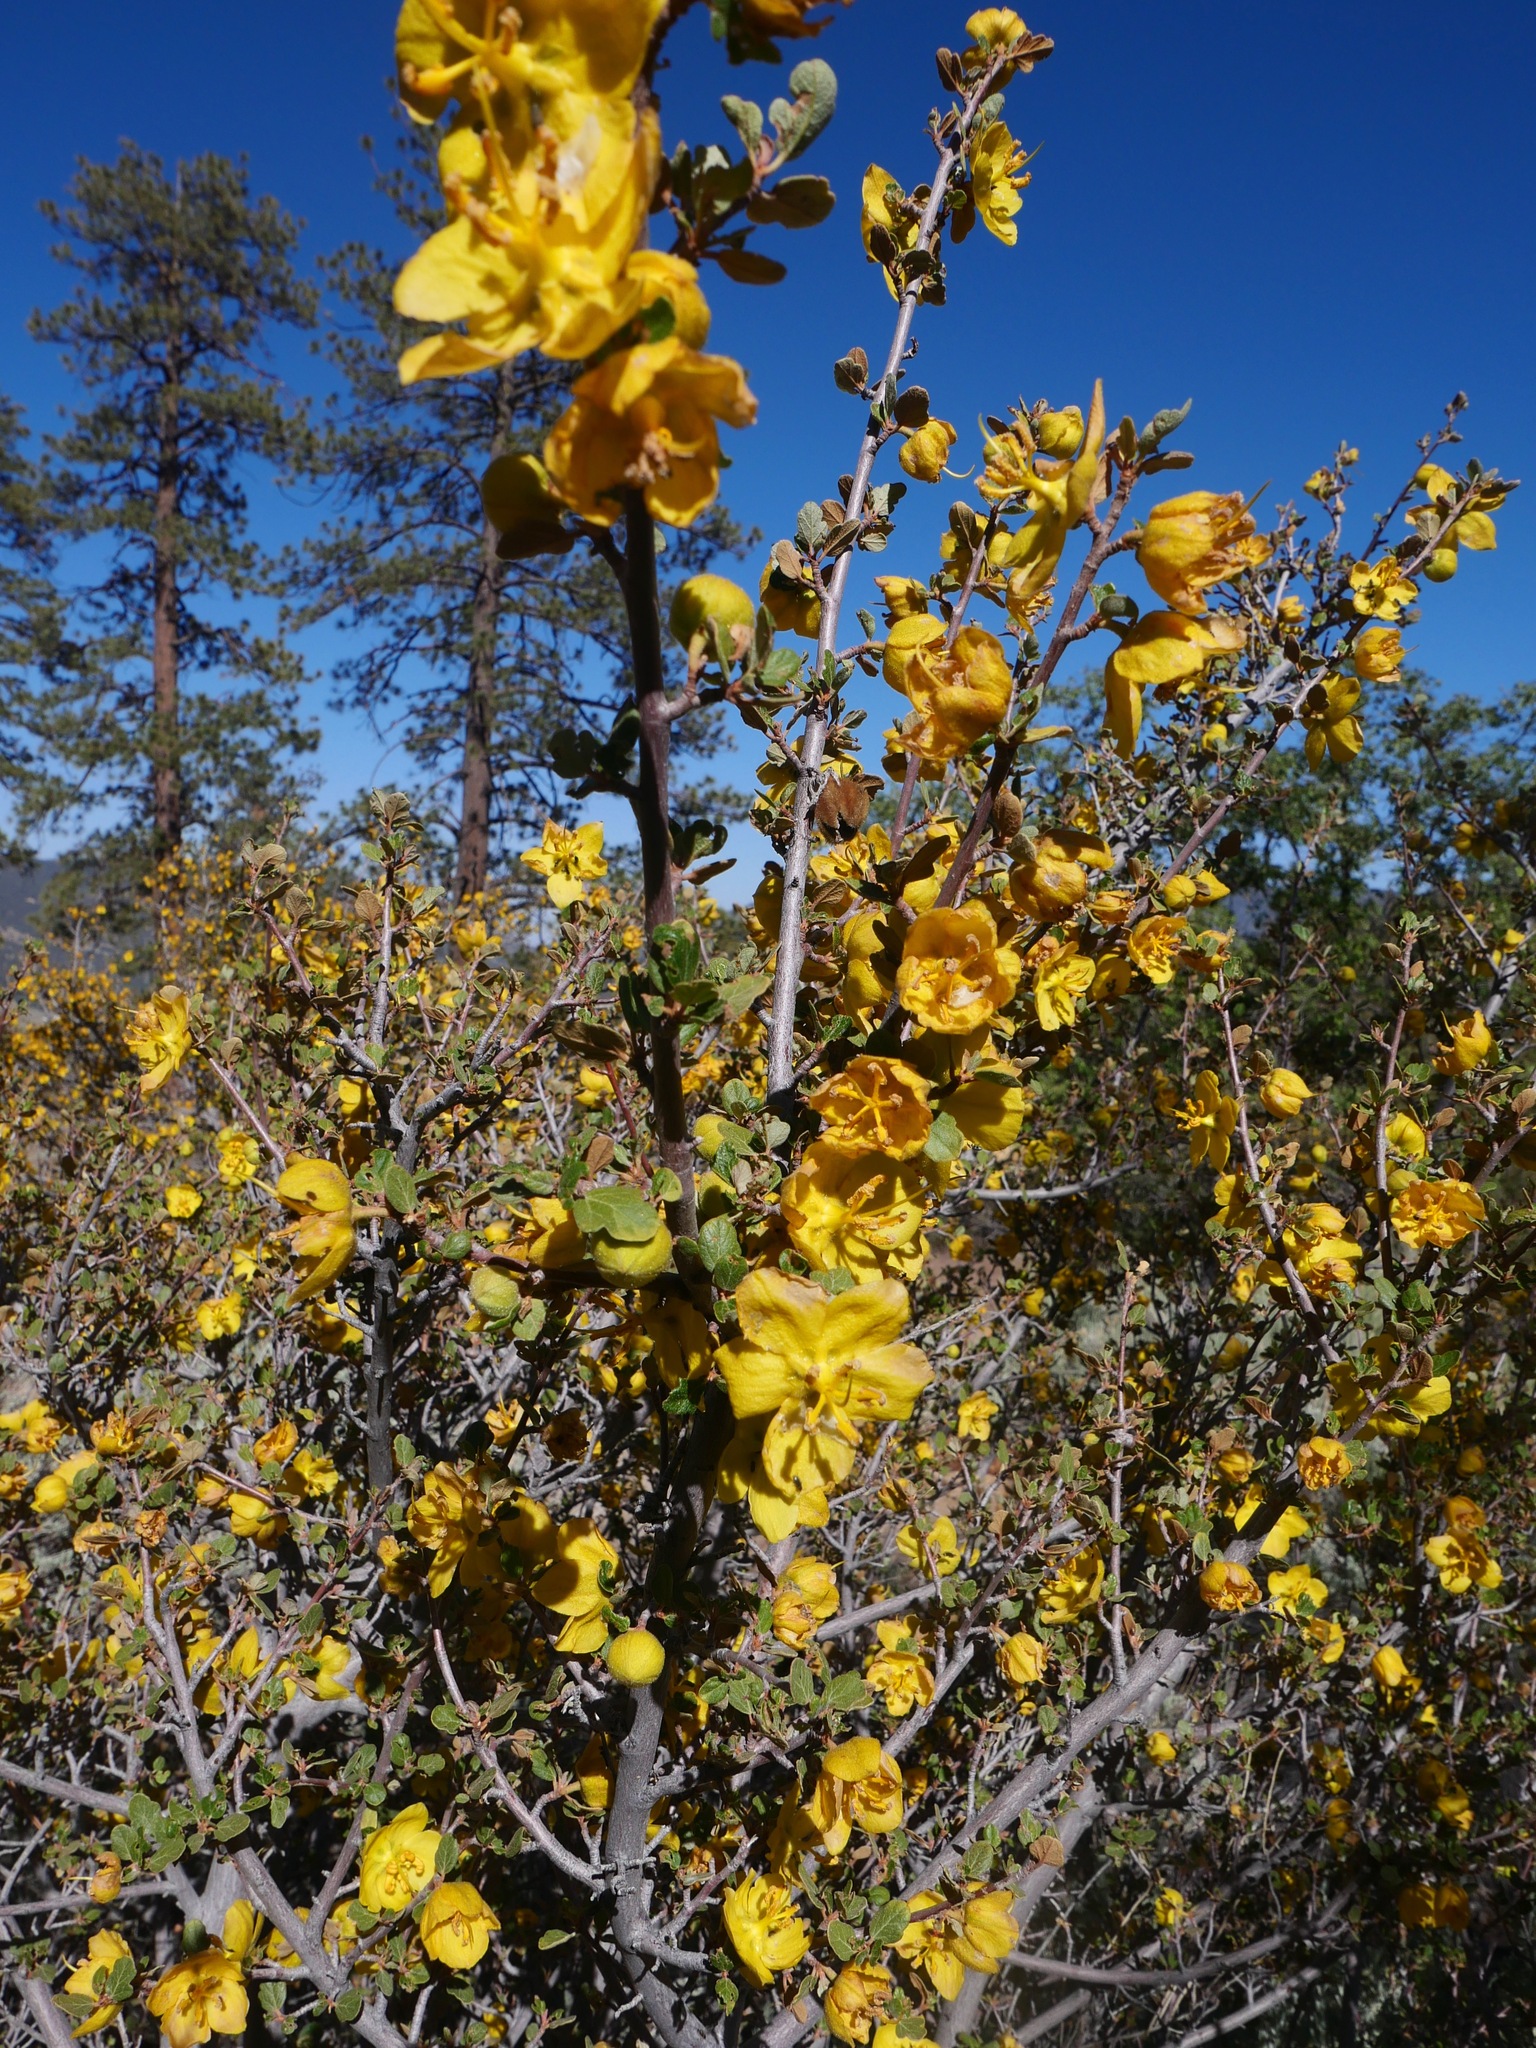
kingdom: Plantae
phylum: Tracheophyta
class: Magnoliopsida
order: Malvales
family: Malvaceae
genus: Fremontodendron
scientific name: Fremontodendron californicum
